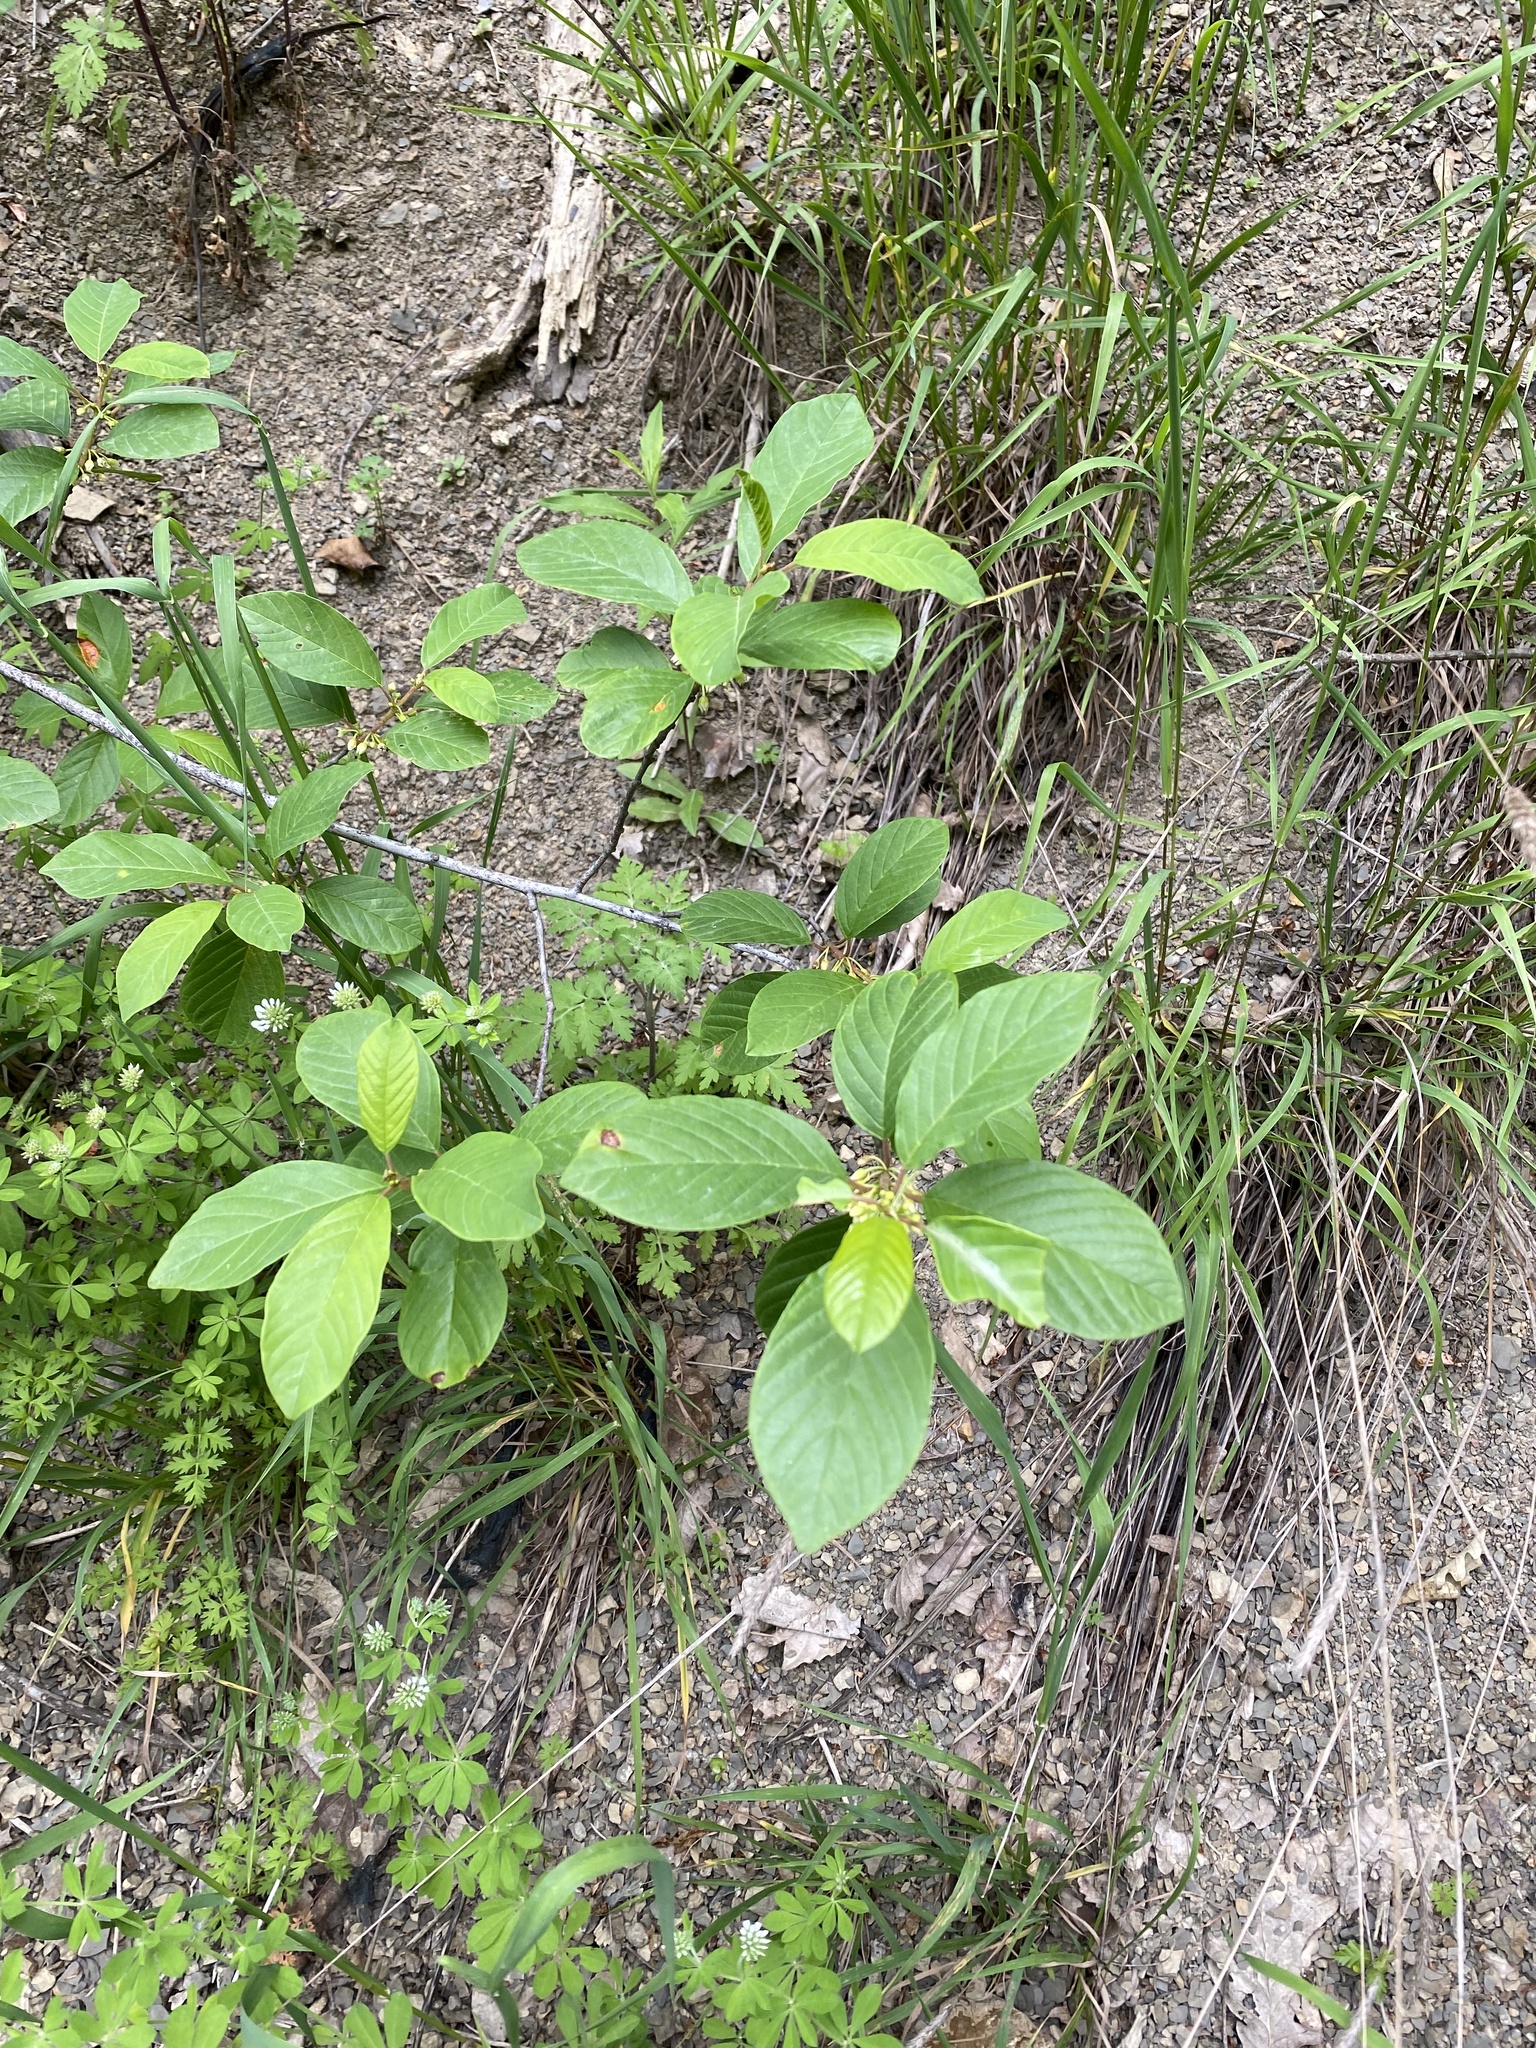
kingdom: Plantae
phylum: Tracheophyta
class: Magnoliopsida
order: Rosales
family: Rhamnaceae
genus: Frangula
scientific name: Frangula alnus
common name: Alder buckthorn
